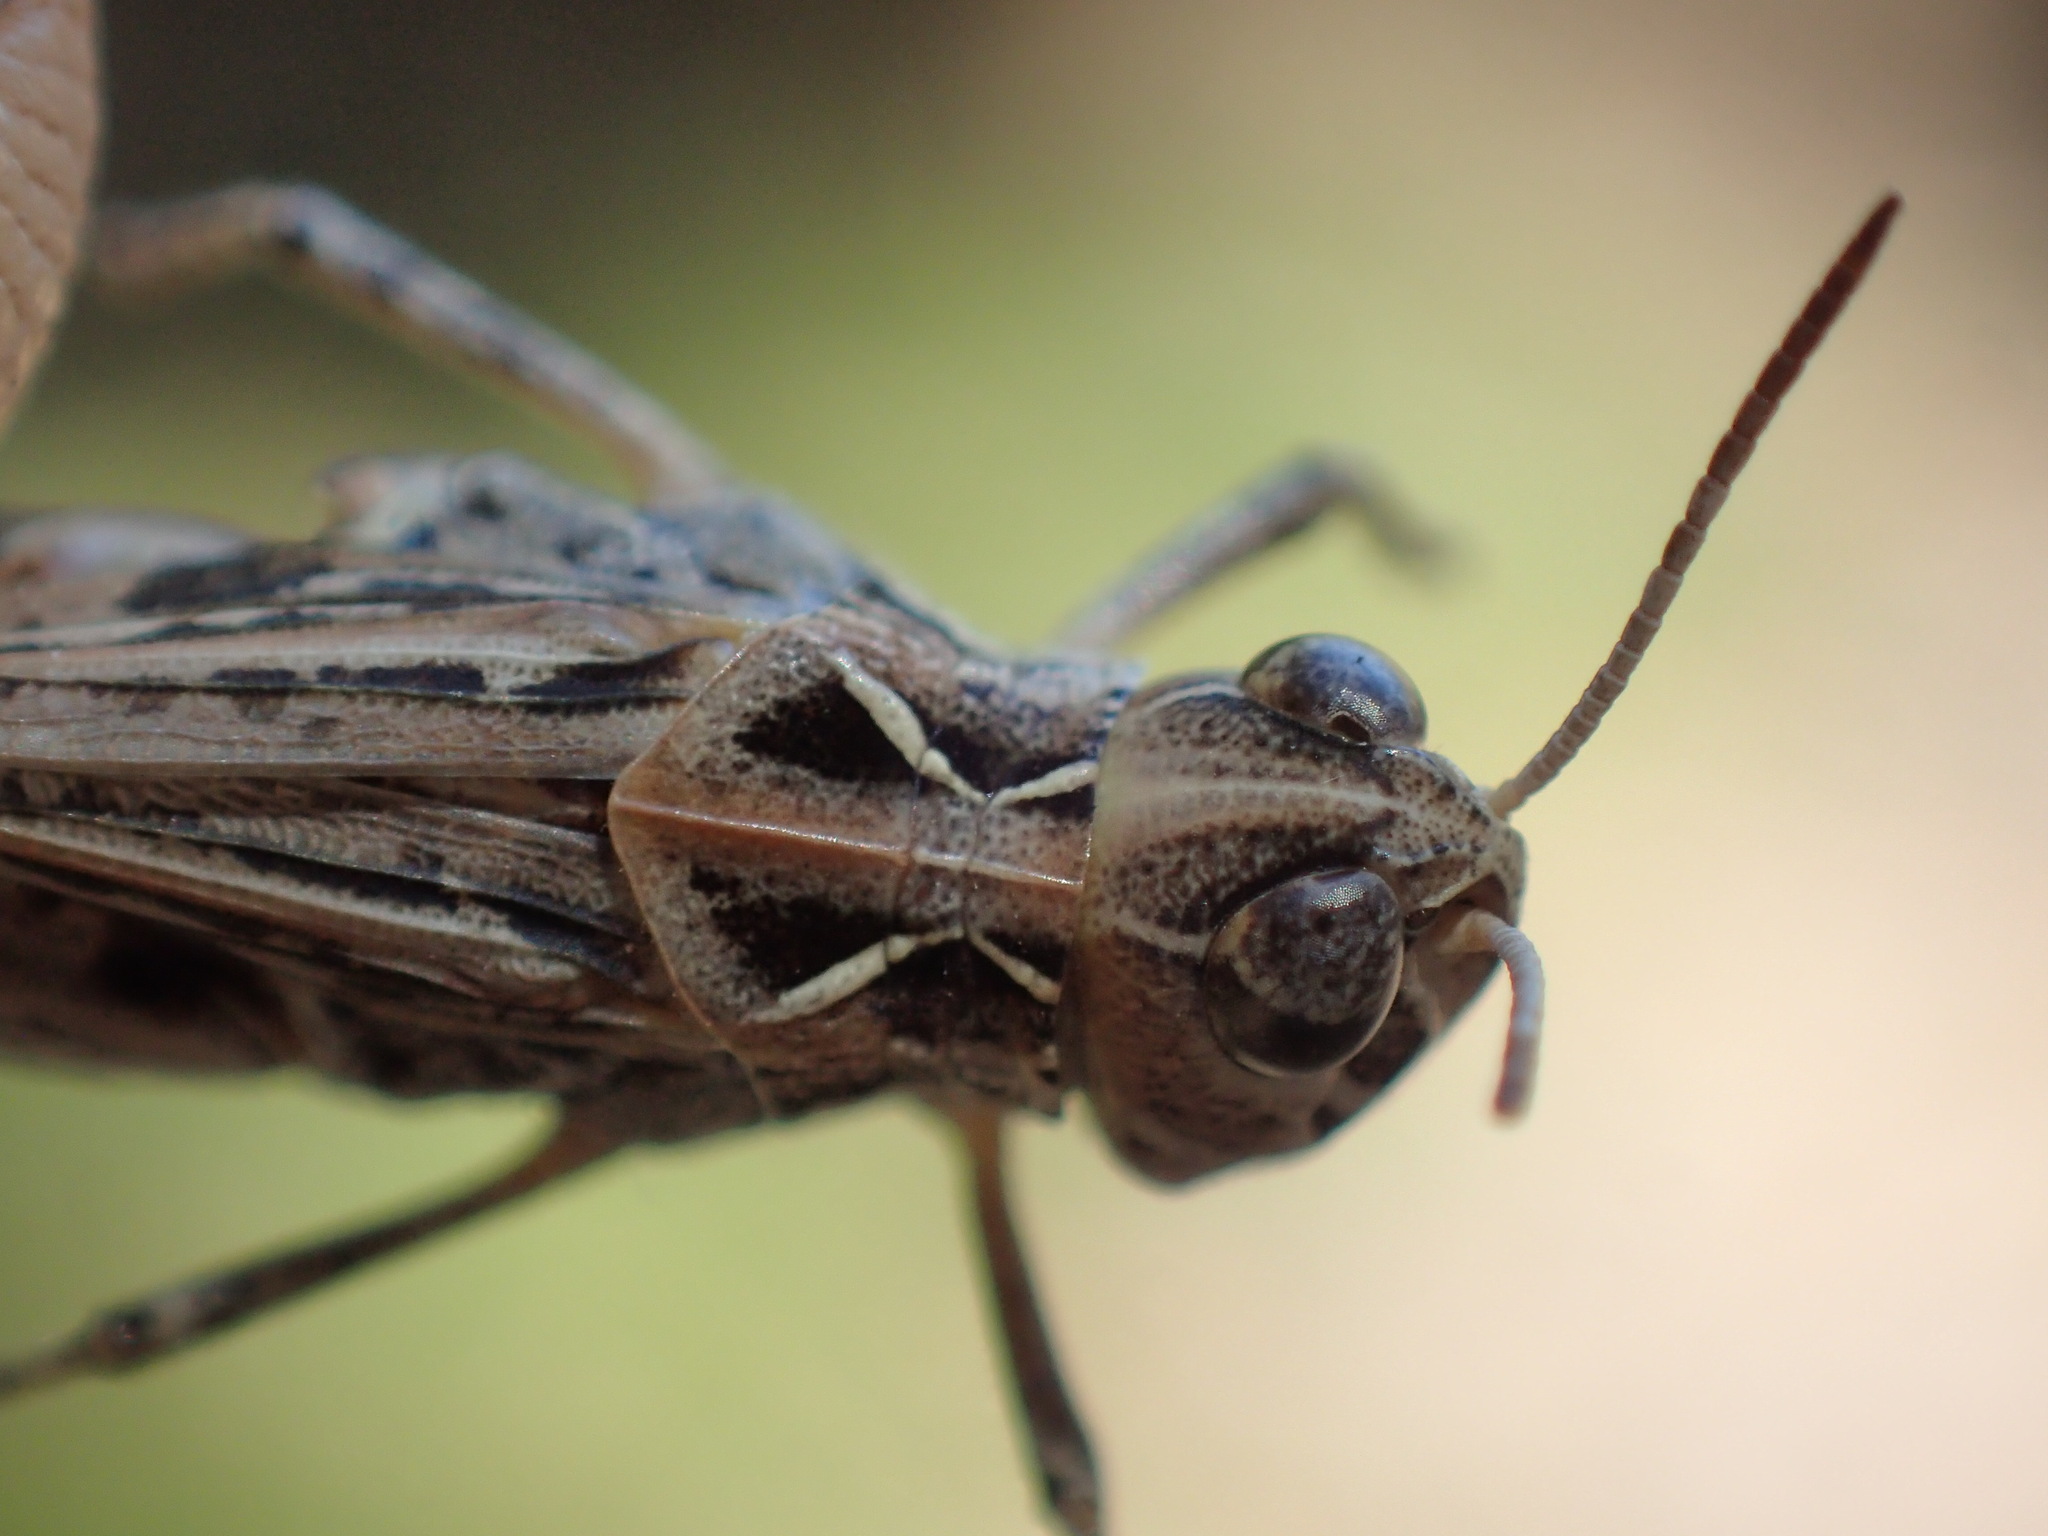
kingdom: Animalia
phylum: Arthropoda
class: Insecta
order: Orthoptera
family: Acrididae
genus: Austroicetes
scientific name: Austroicetes vulgaris
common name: Southeastern austroicetes
